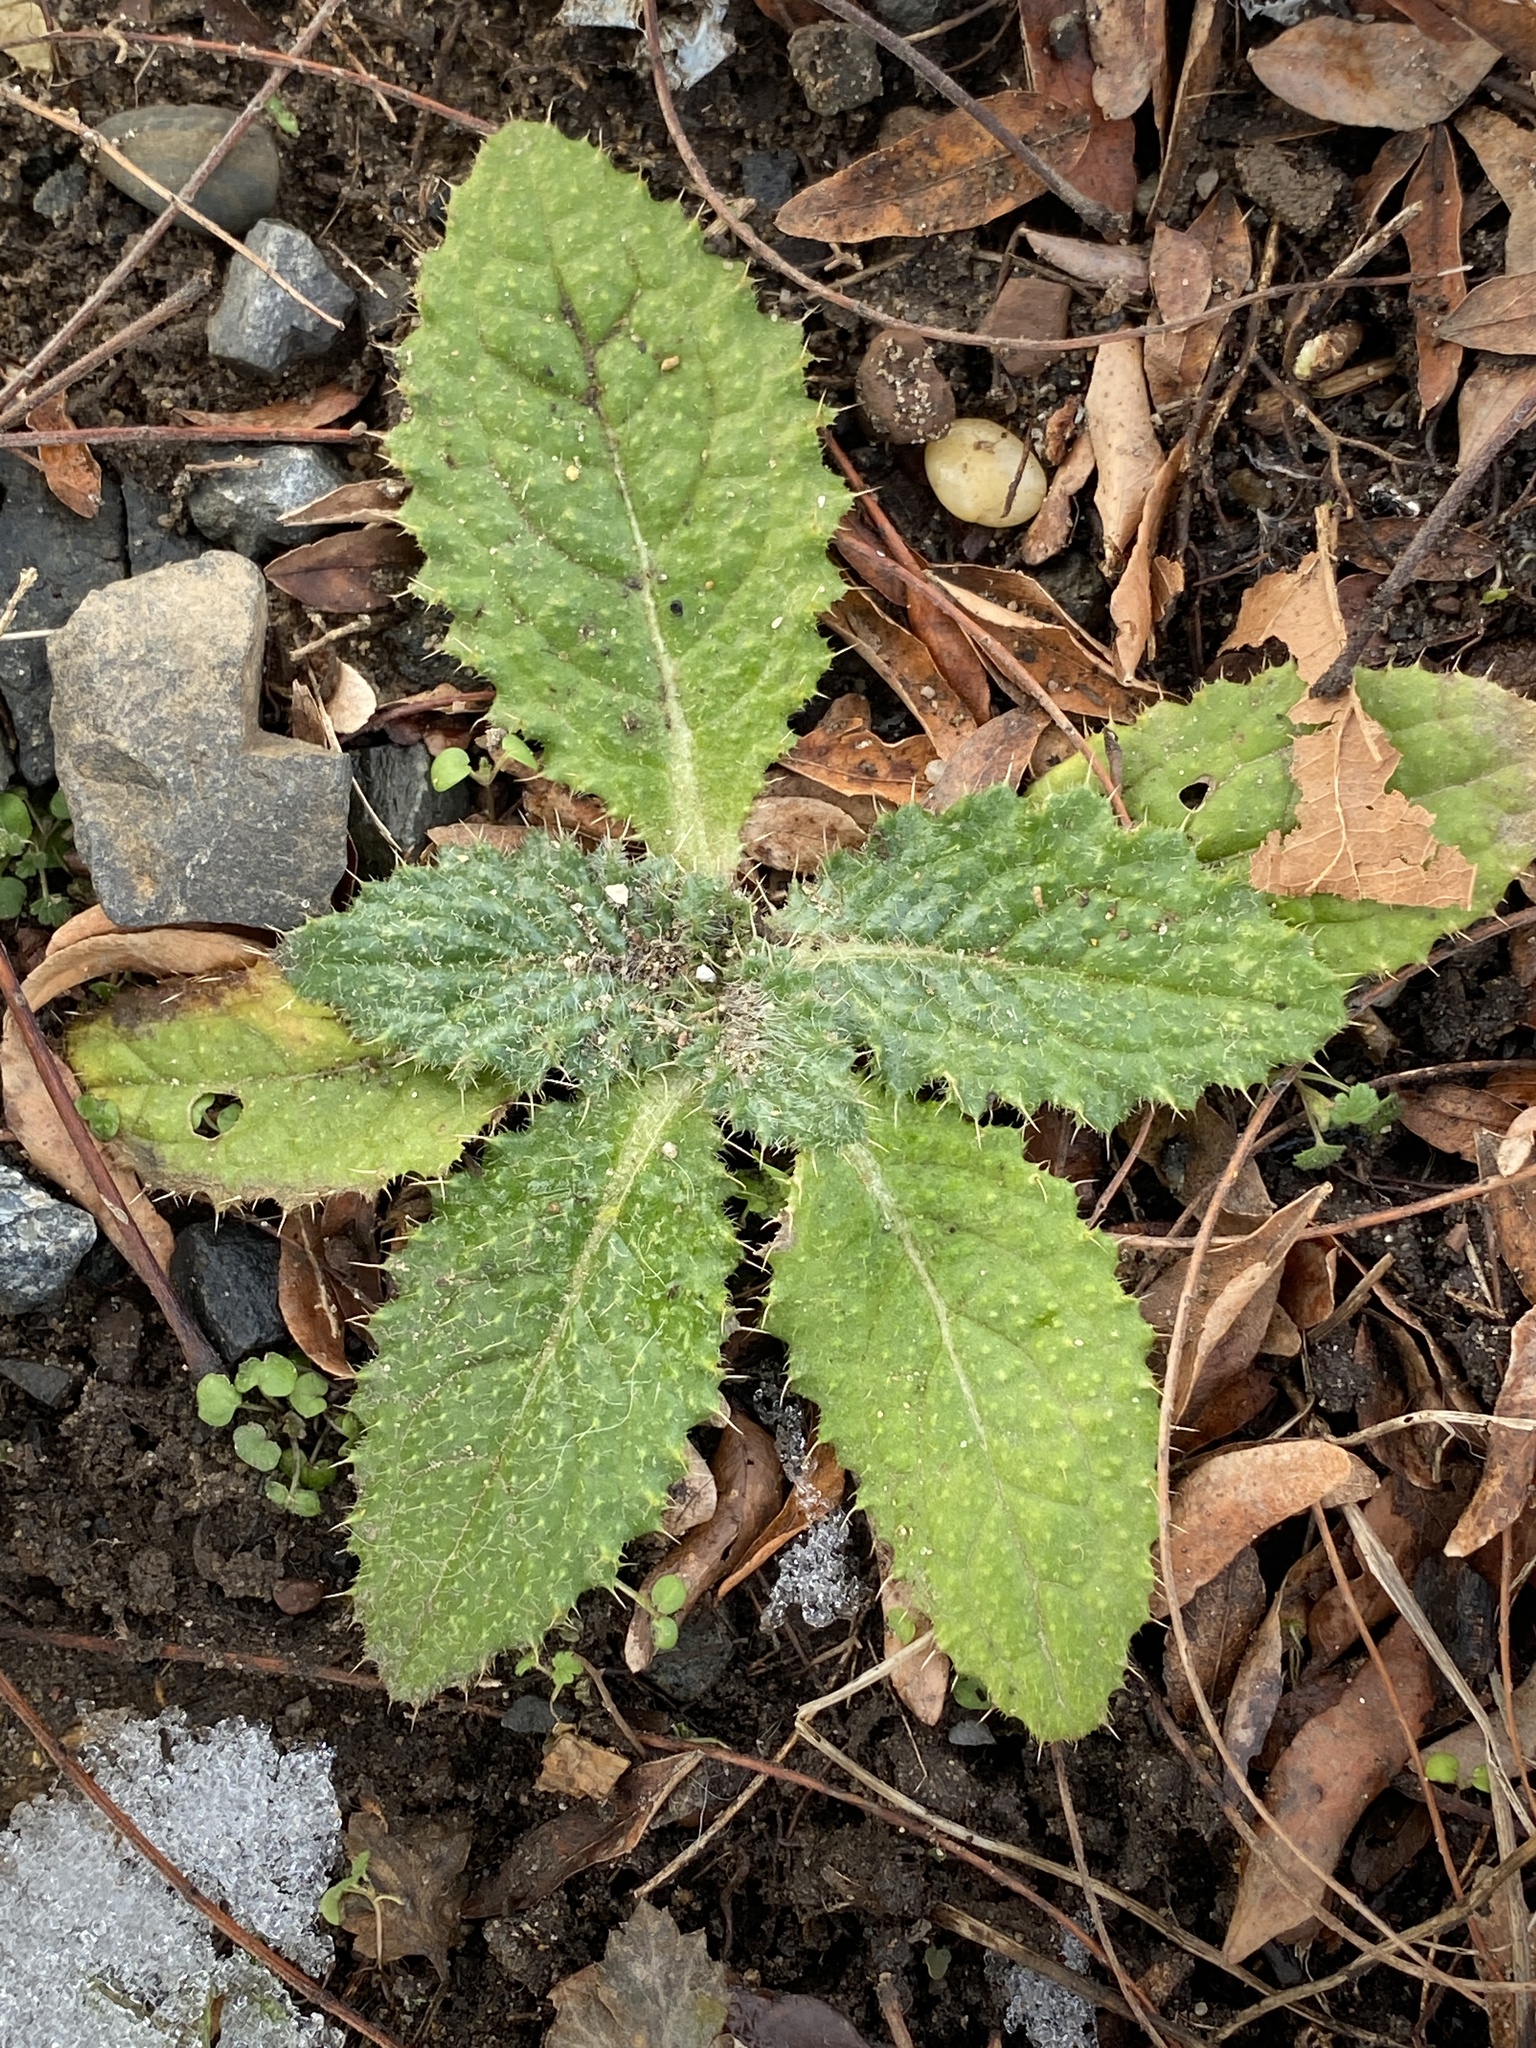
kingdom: Plantae
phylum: Tracheophyta
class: Magnoliopsida
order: Asterales
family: Asteraceae
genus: Cirsium
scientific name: Cirsium vulgare
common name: Bull thistle
